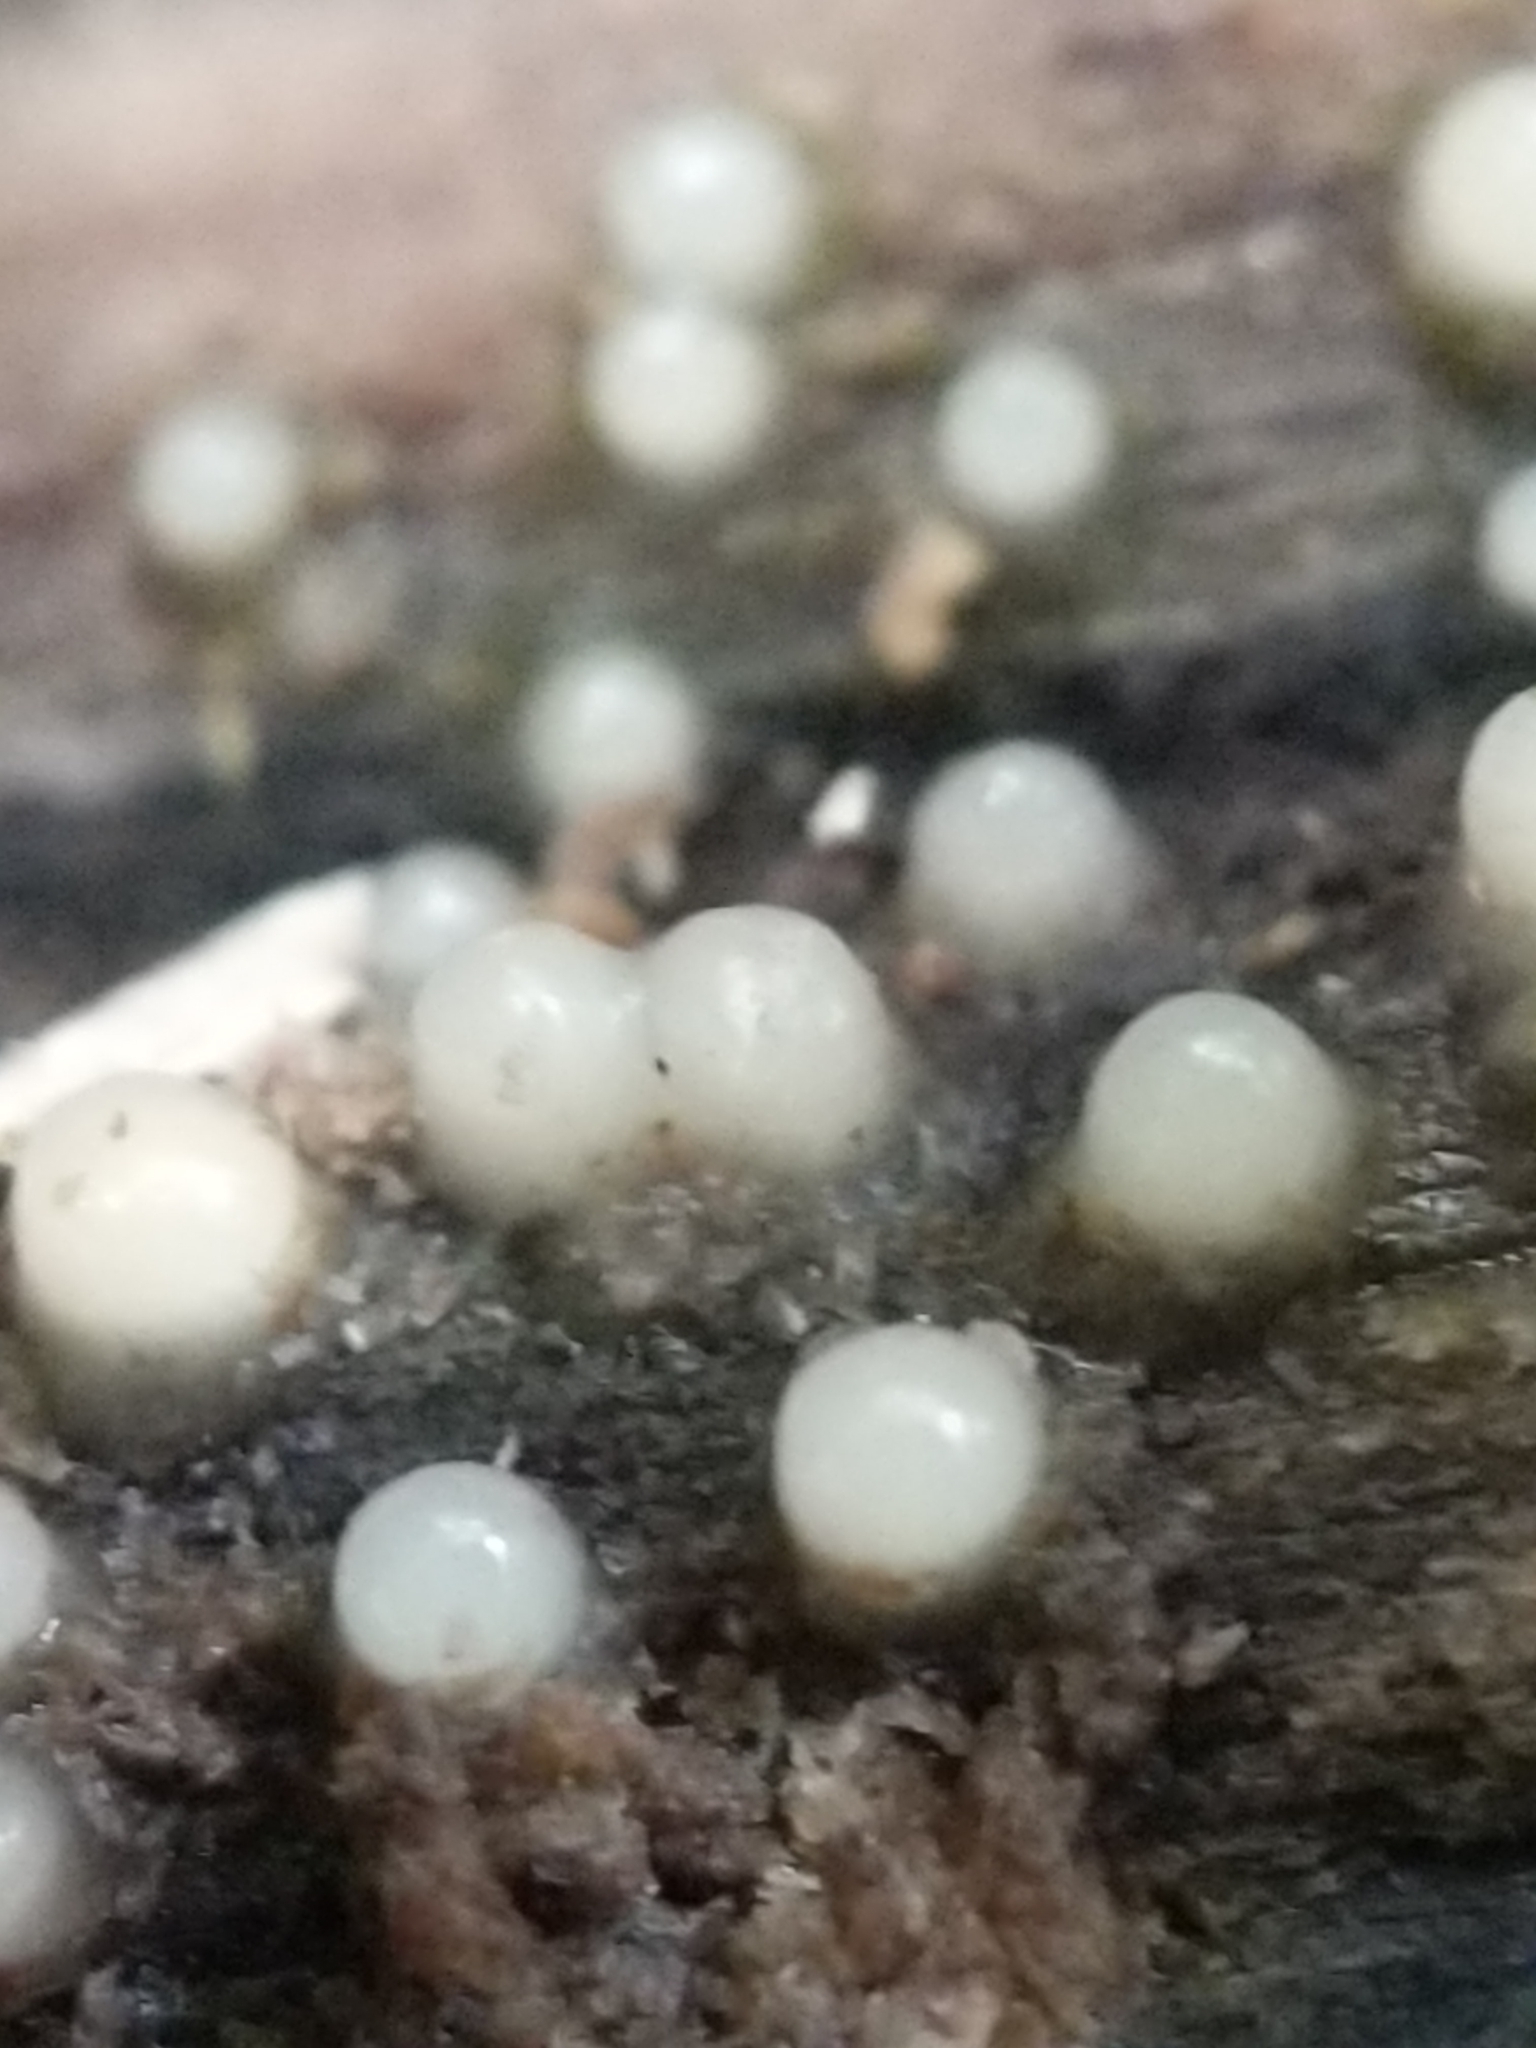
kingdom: Fungi
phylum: Basidiomycota
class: Atractiellomycetes
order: Atractiellales
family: Phleogenaceae
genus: Helicogloea
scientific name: Helicogloea compressa
